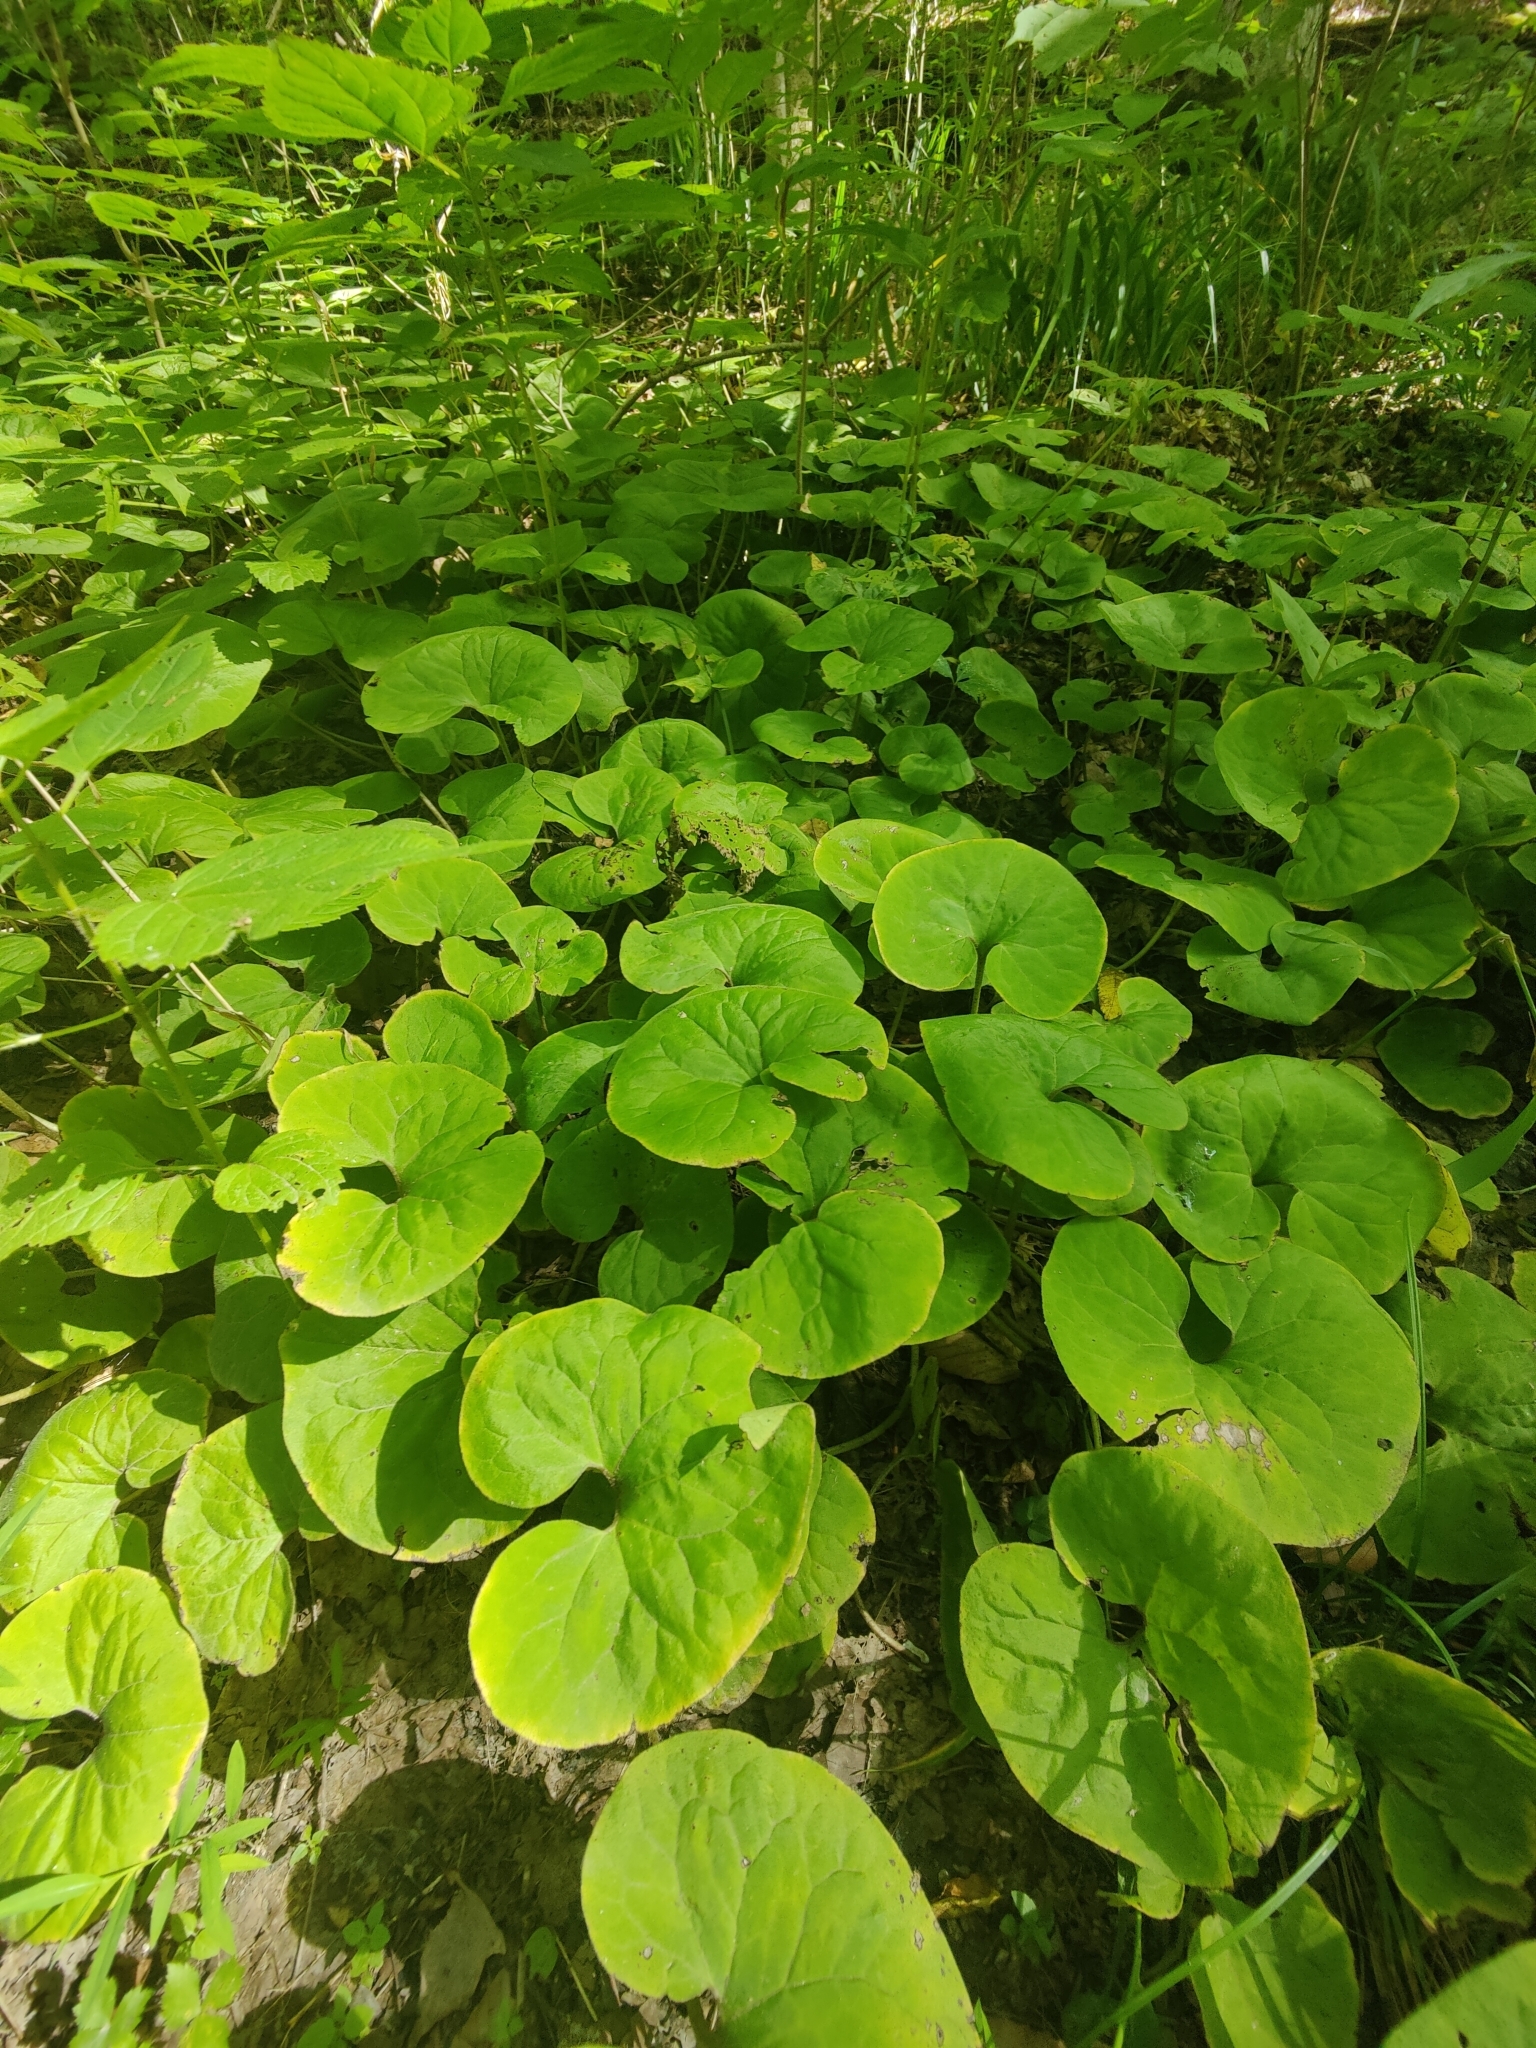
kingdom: Plantae
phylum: Tracheophyta
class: Magnoliopsida
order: Piperales
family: Aristolochiaceae
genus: Asarum
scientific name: Asarum canadense
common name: Wild ginger
